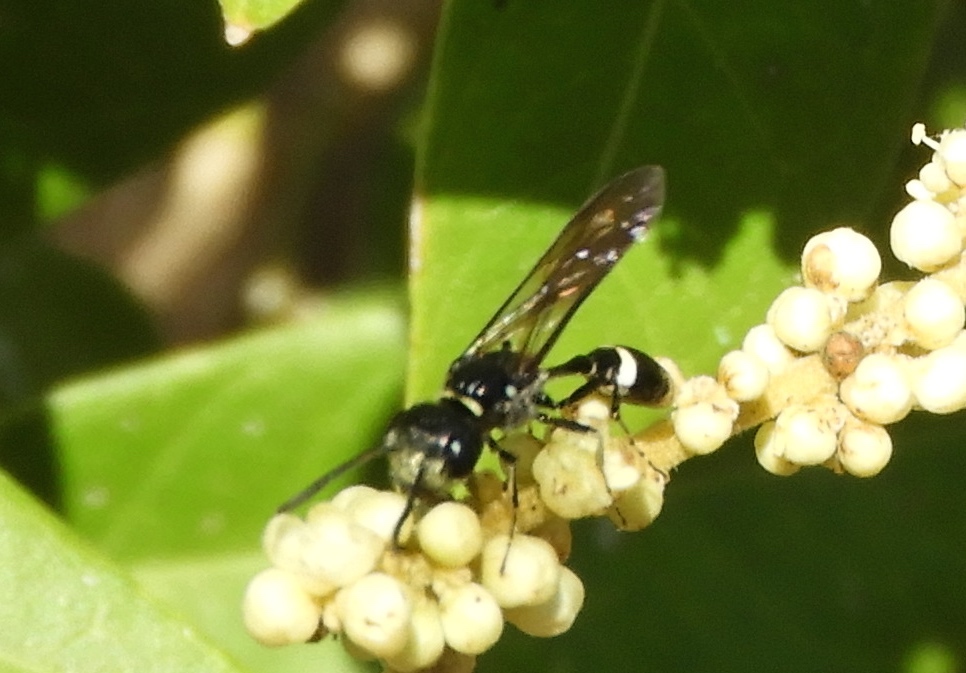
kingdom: Animalia
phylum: Arthropoda
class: Insecta
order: Hymenoptera
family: Crabronidae
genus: Trachypus
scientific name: Trachypus
